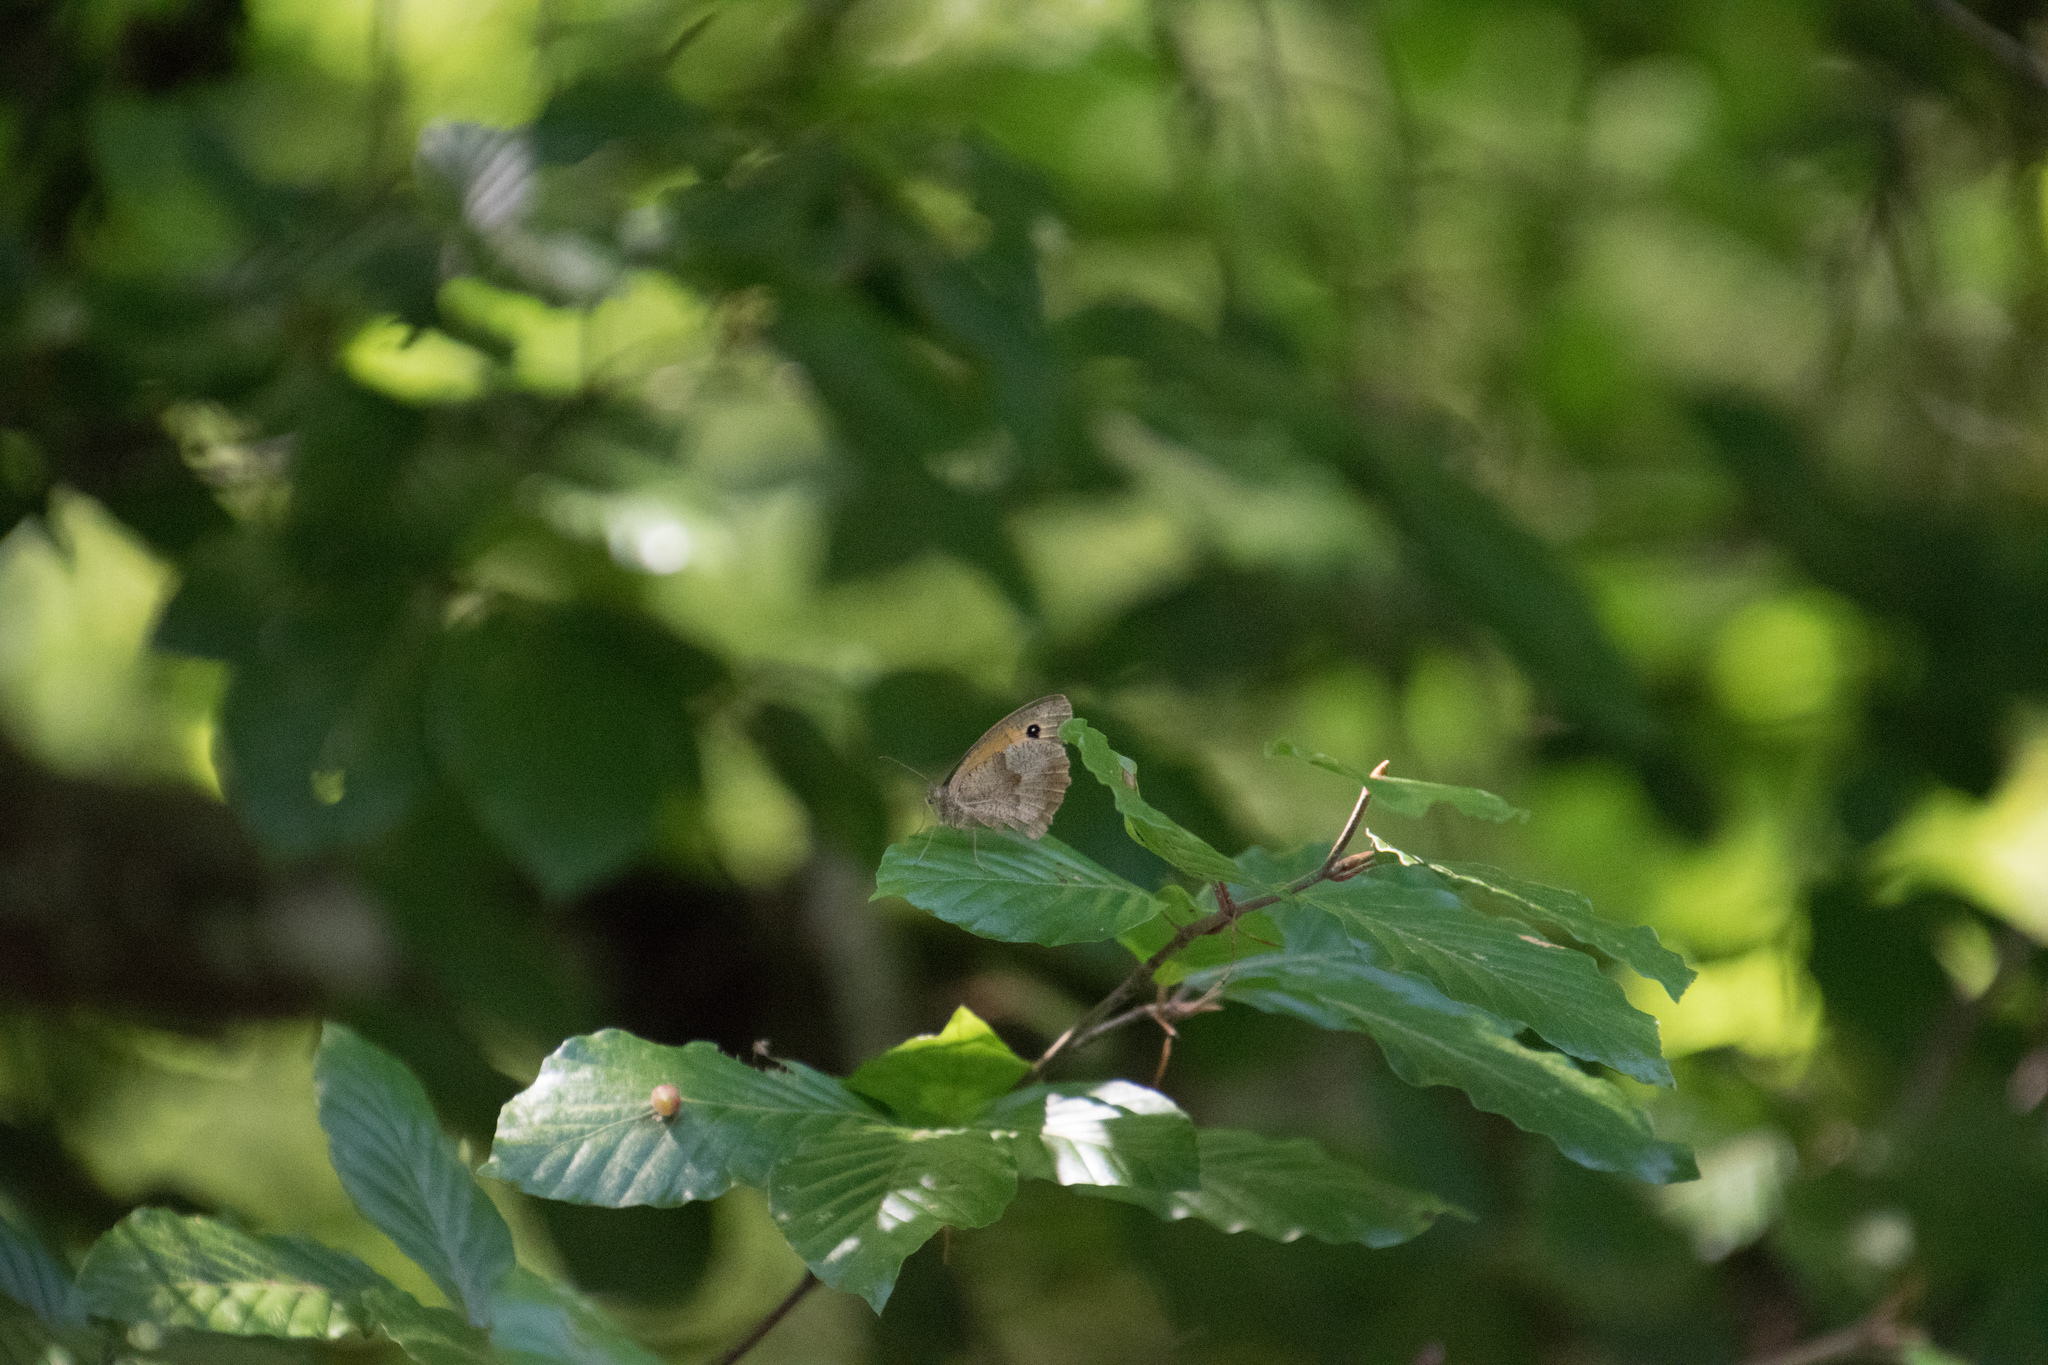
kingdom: Animalia
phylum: Arthropoda
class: Insecta
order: Lepidoptera
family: Nymphalidae
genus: Maniola
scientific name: Maniola jurtina
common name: Meadow brown
